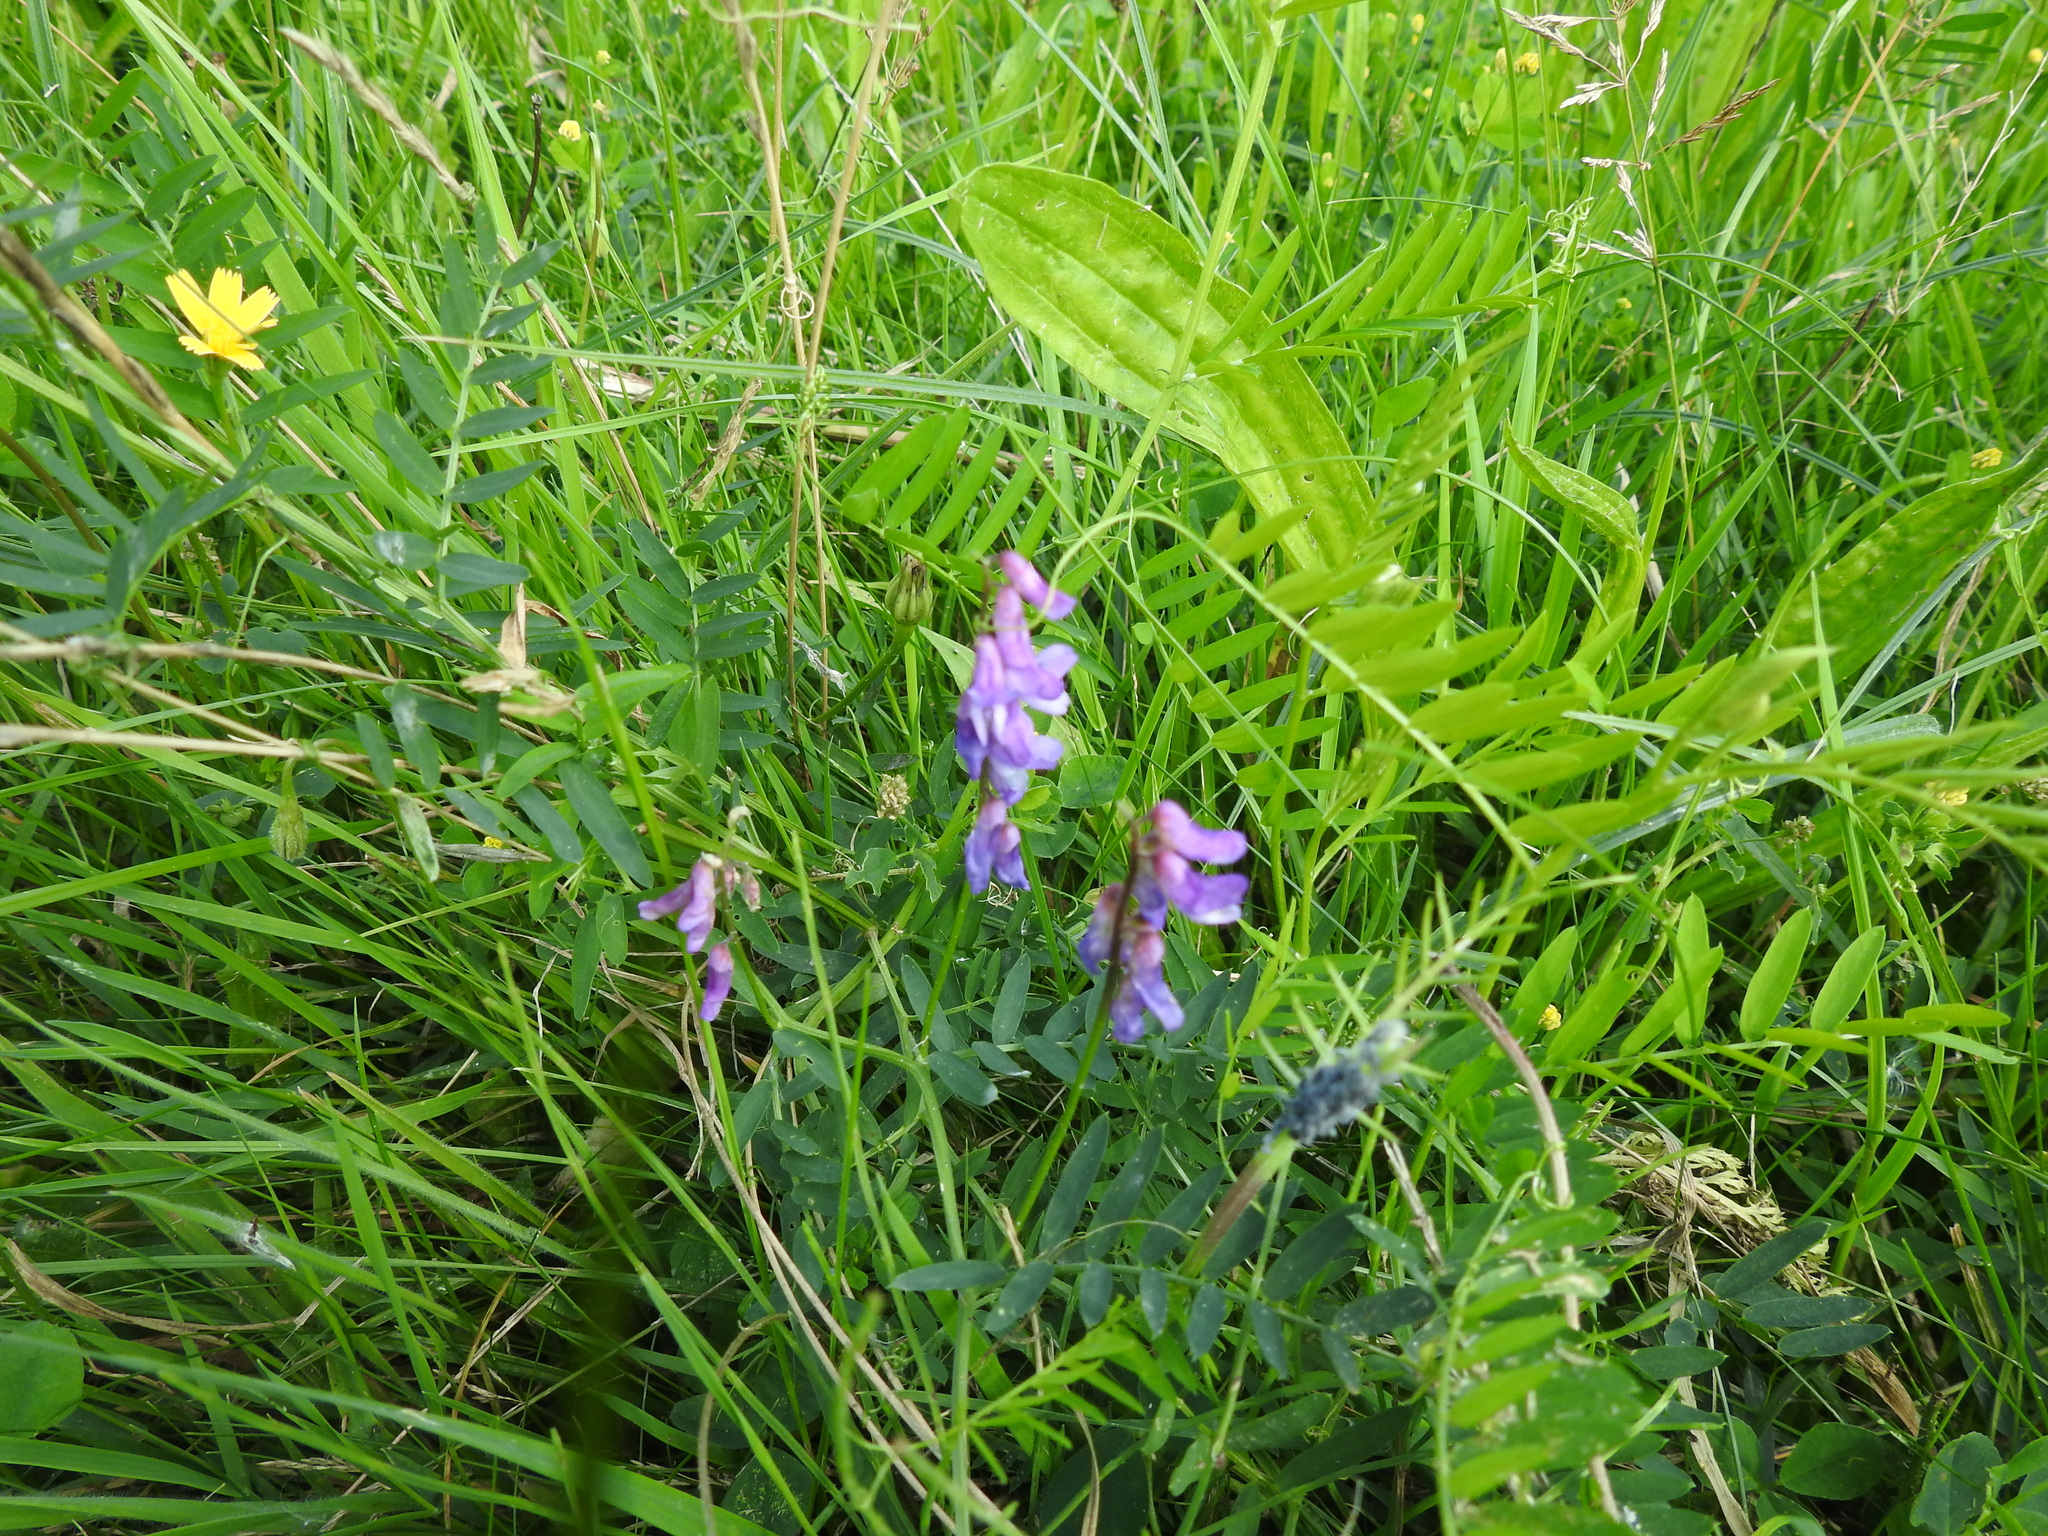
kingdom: Plantae
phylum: Tracheophyta
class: Magnoliopsida
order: Fabales
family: Fabaceae
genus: Vicia
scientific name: Vicia cracca
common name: Bird vetch
